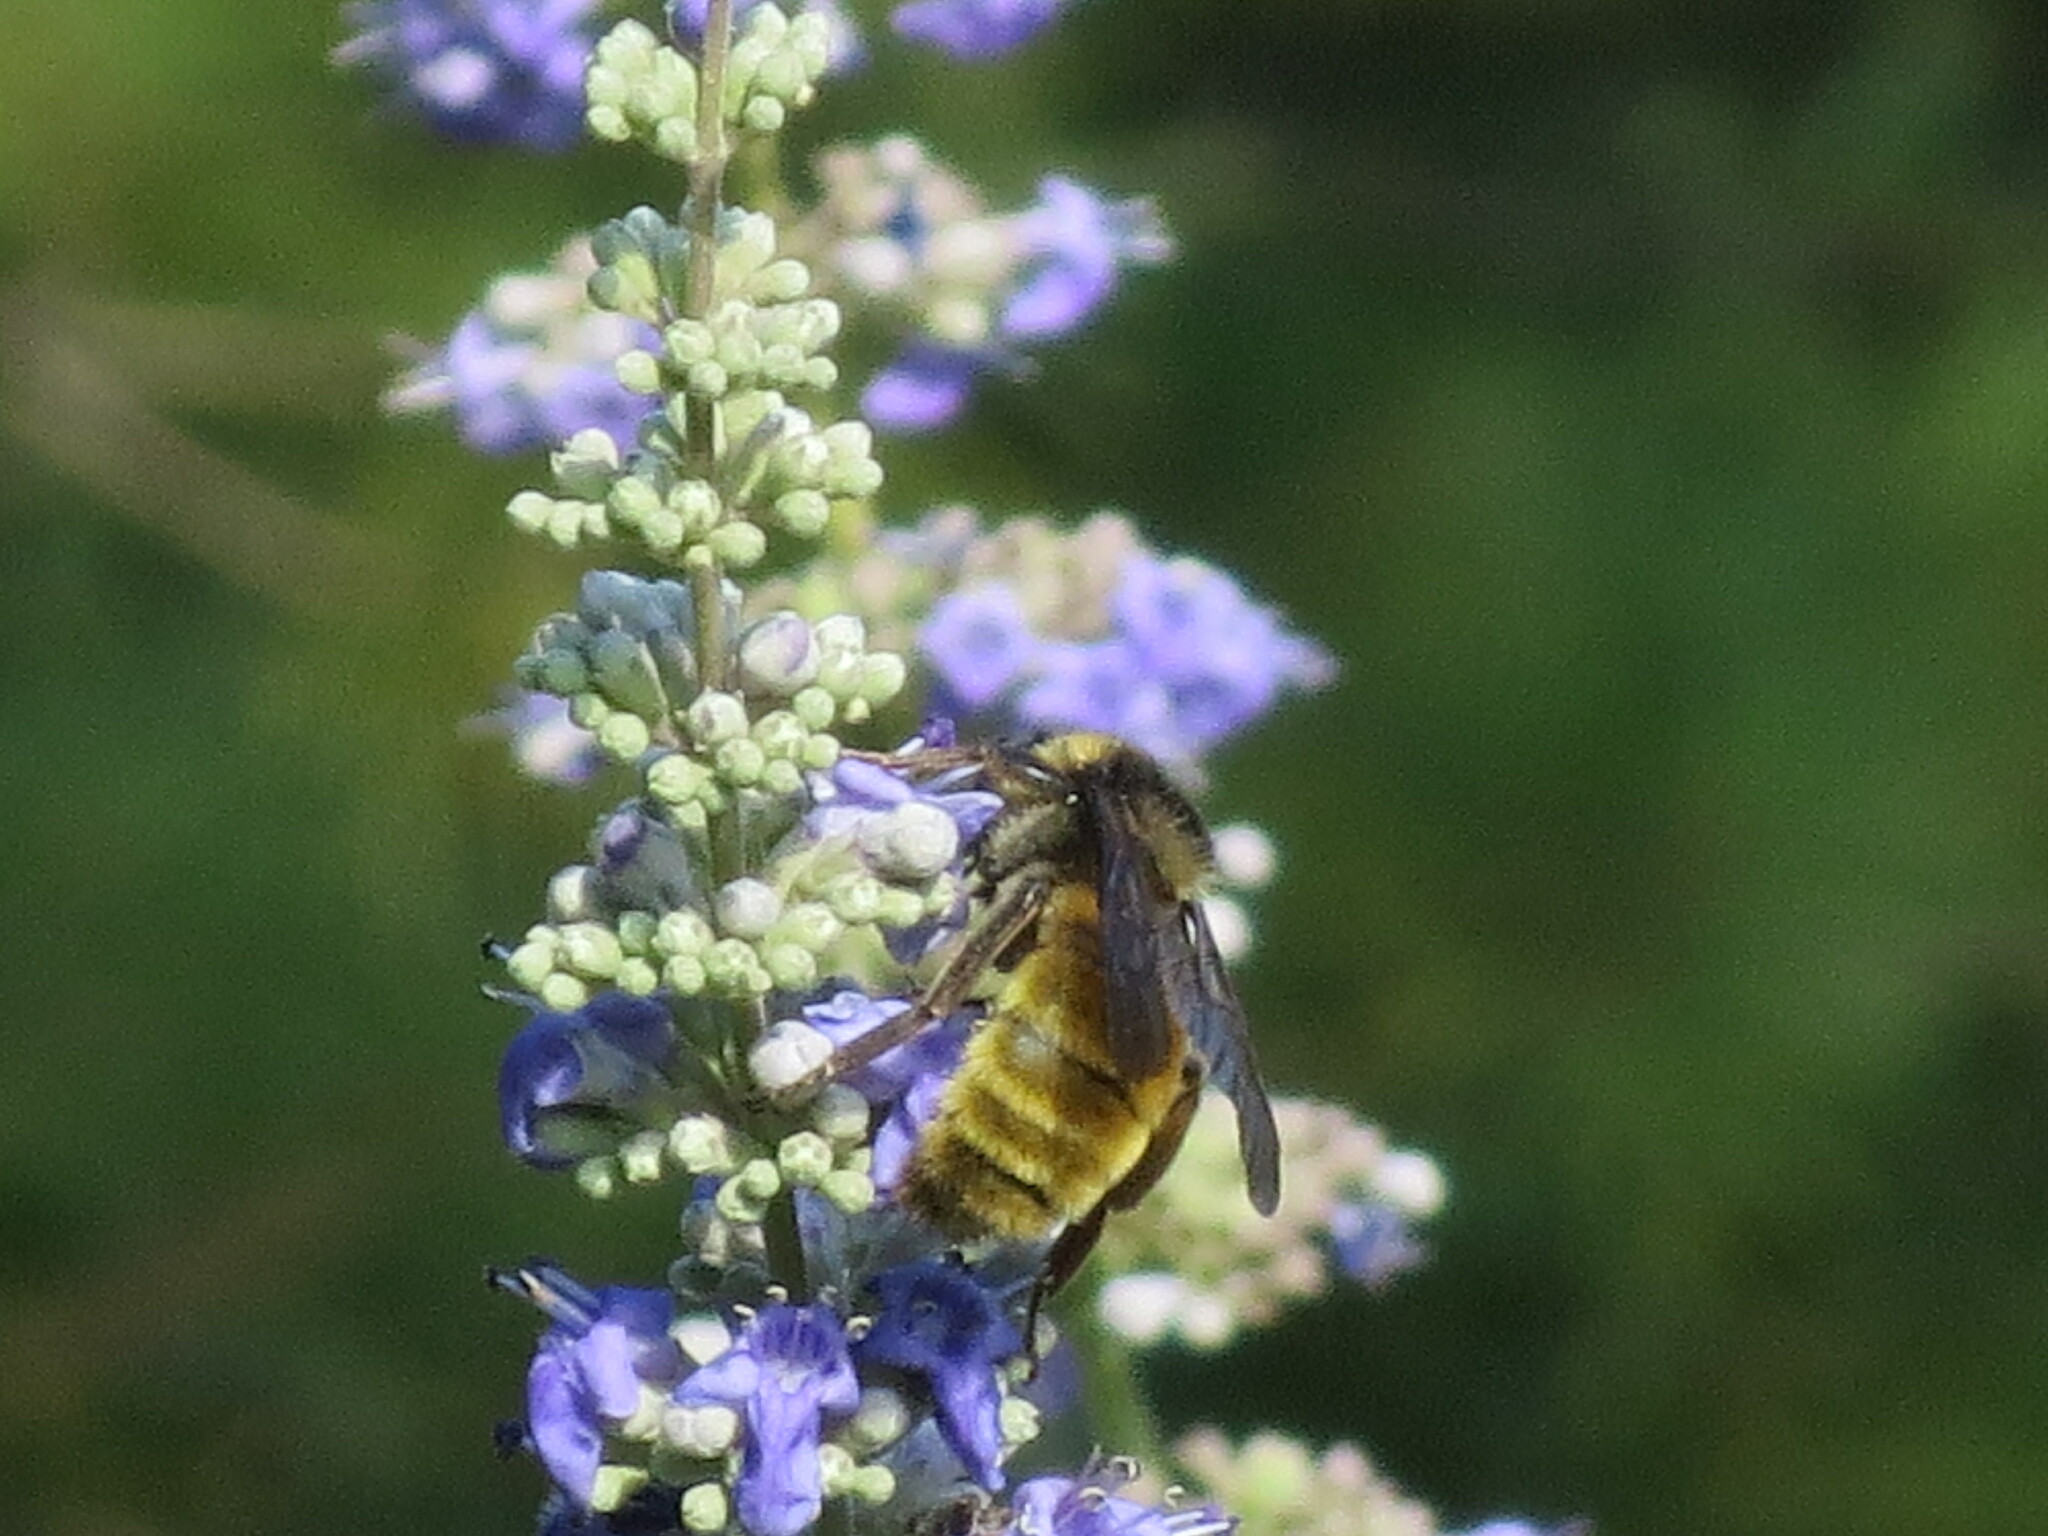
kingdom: Animalia
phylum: Arthropoda
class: Insecta
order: Hymenoptera
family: Apidae
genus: Bombus
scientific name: Bombus pensylvanicus
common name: Bumble bee
